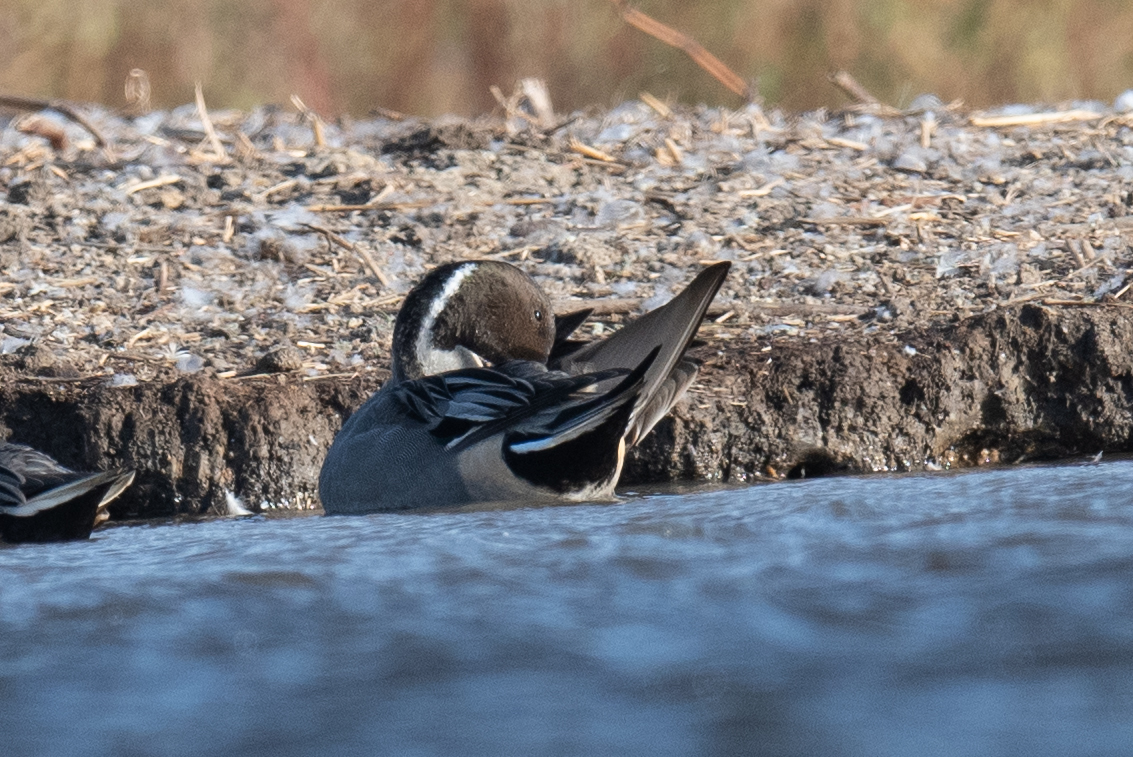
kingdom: Animalia
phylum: Chordata
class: Aves
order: Anseriformes
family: Anatidae
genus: Anas
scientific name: Anas acuta
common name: Northern pintail
